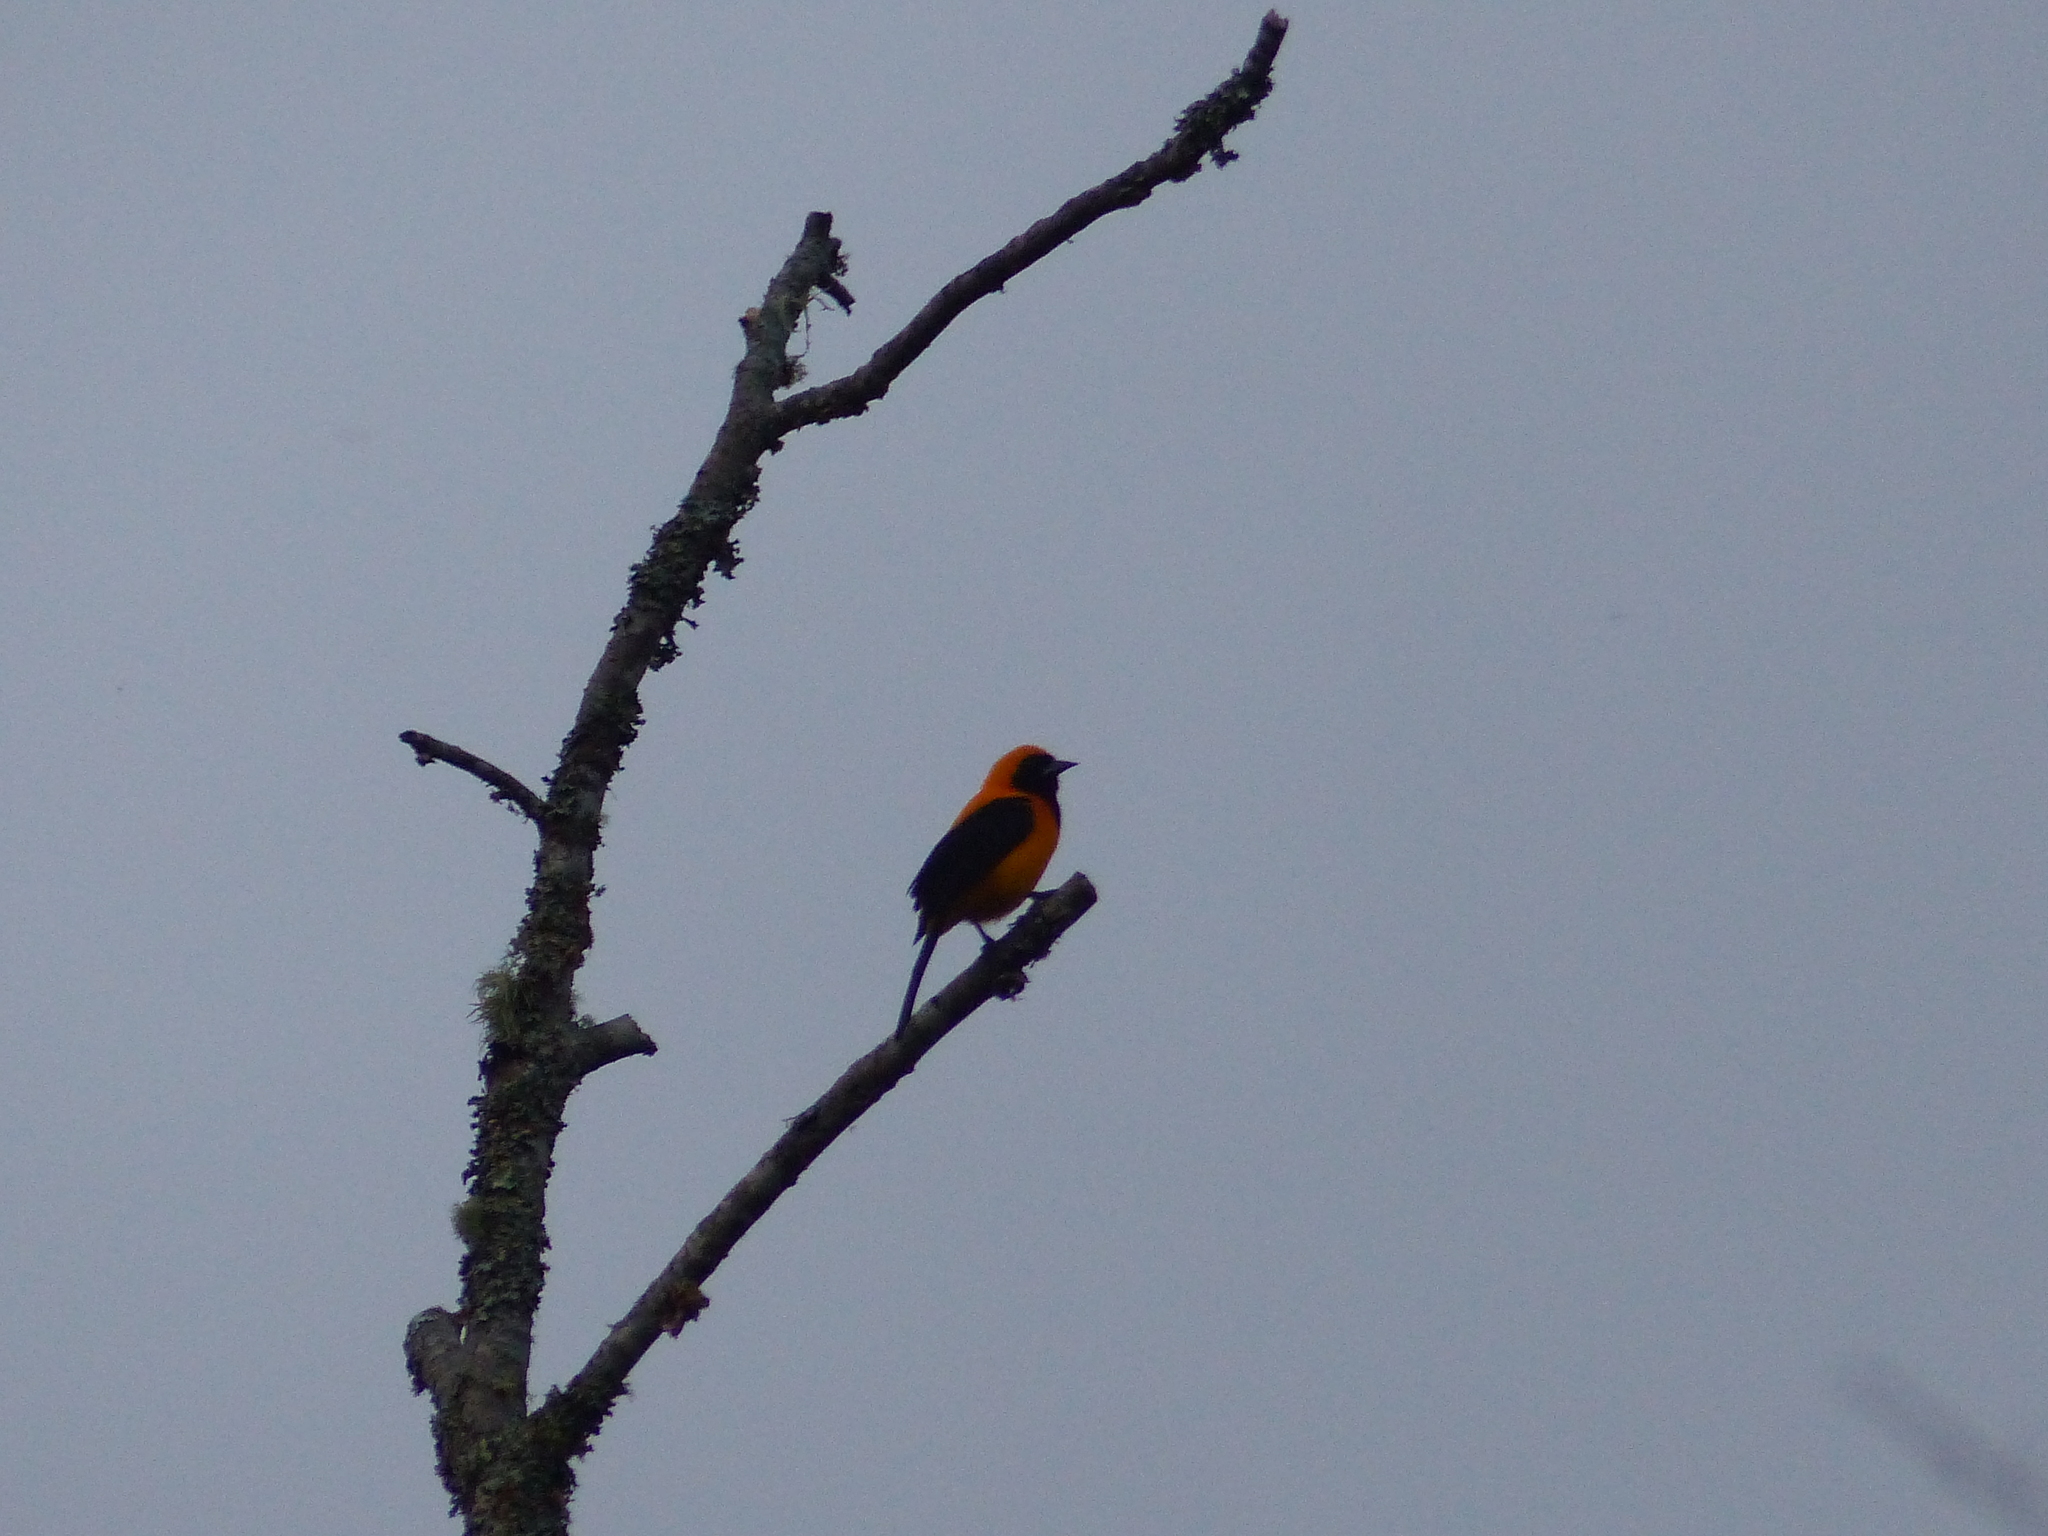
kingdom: Animalia
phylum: Chordata
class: Aves
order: Passeriformes
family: Icteridae
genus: Icterus
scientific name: Icterus chrysater
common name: Yellow-backed oriole
